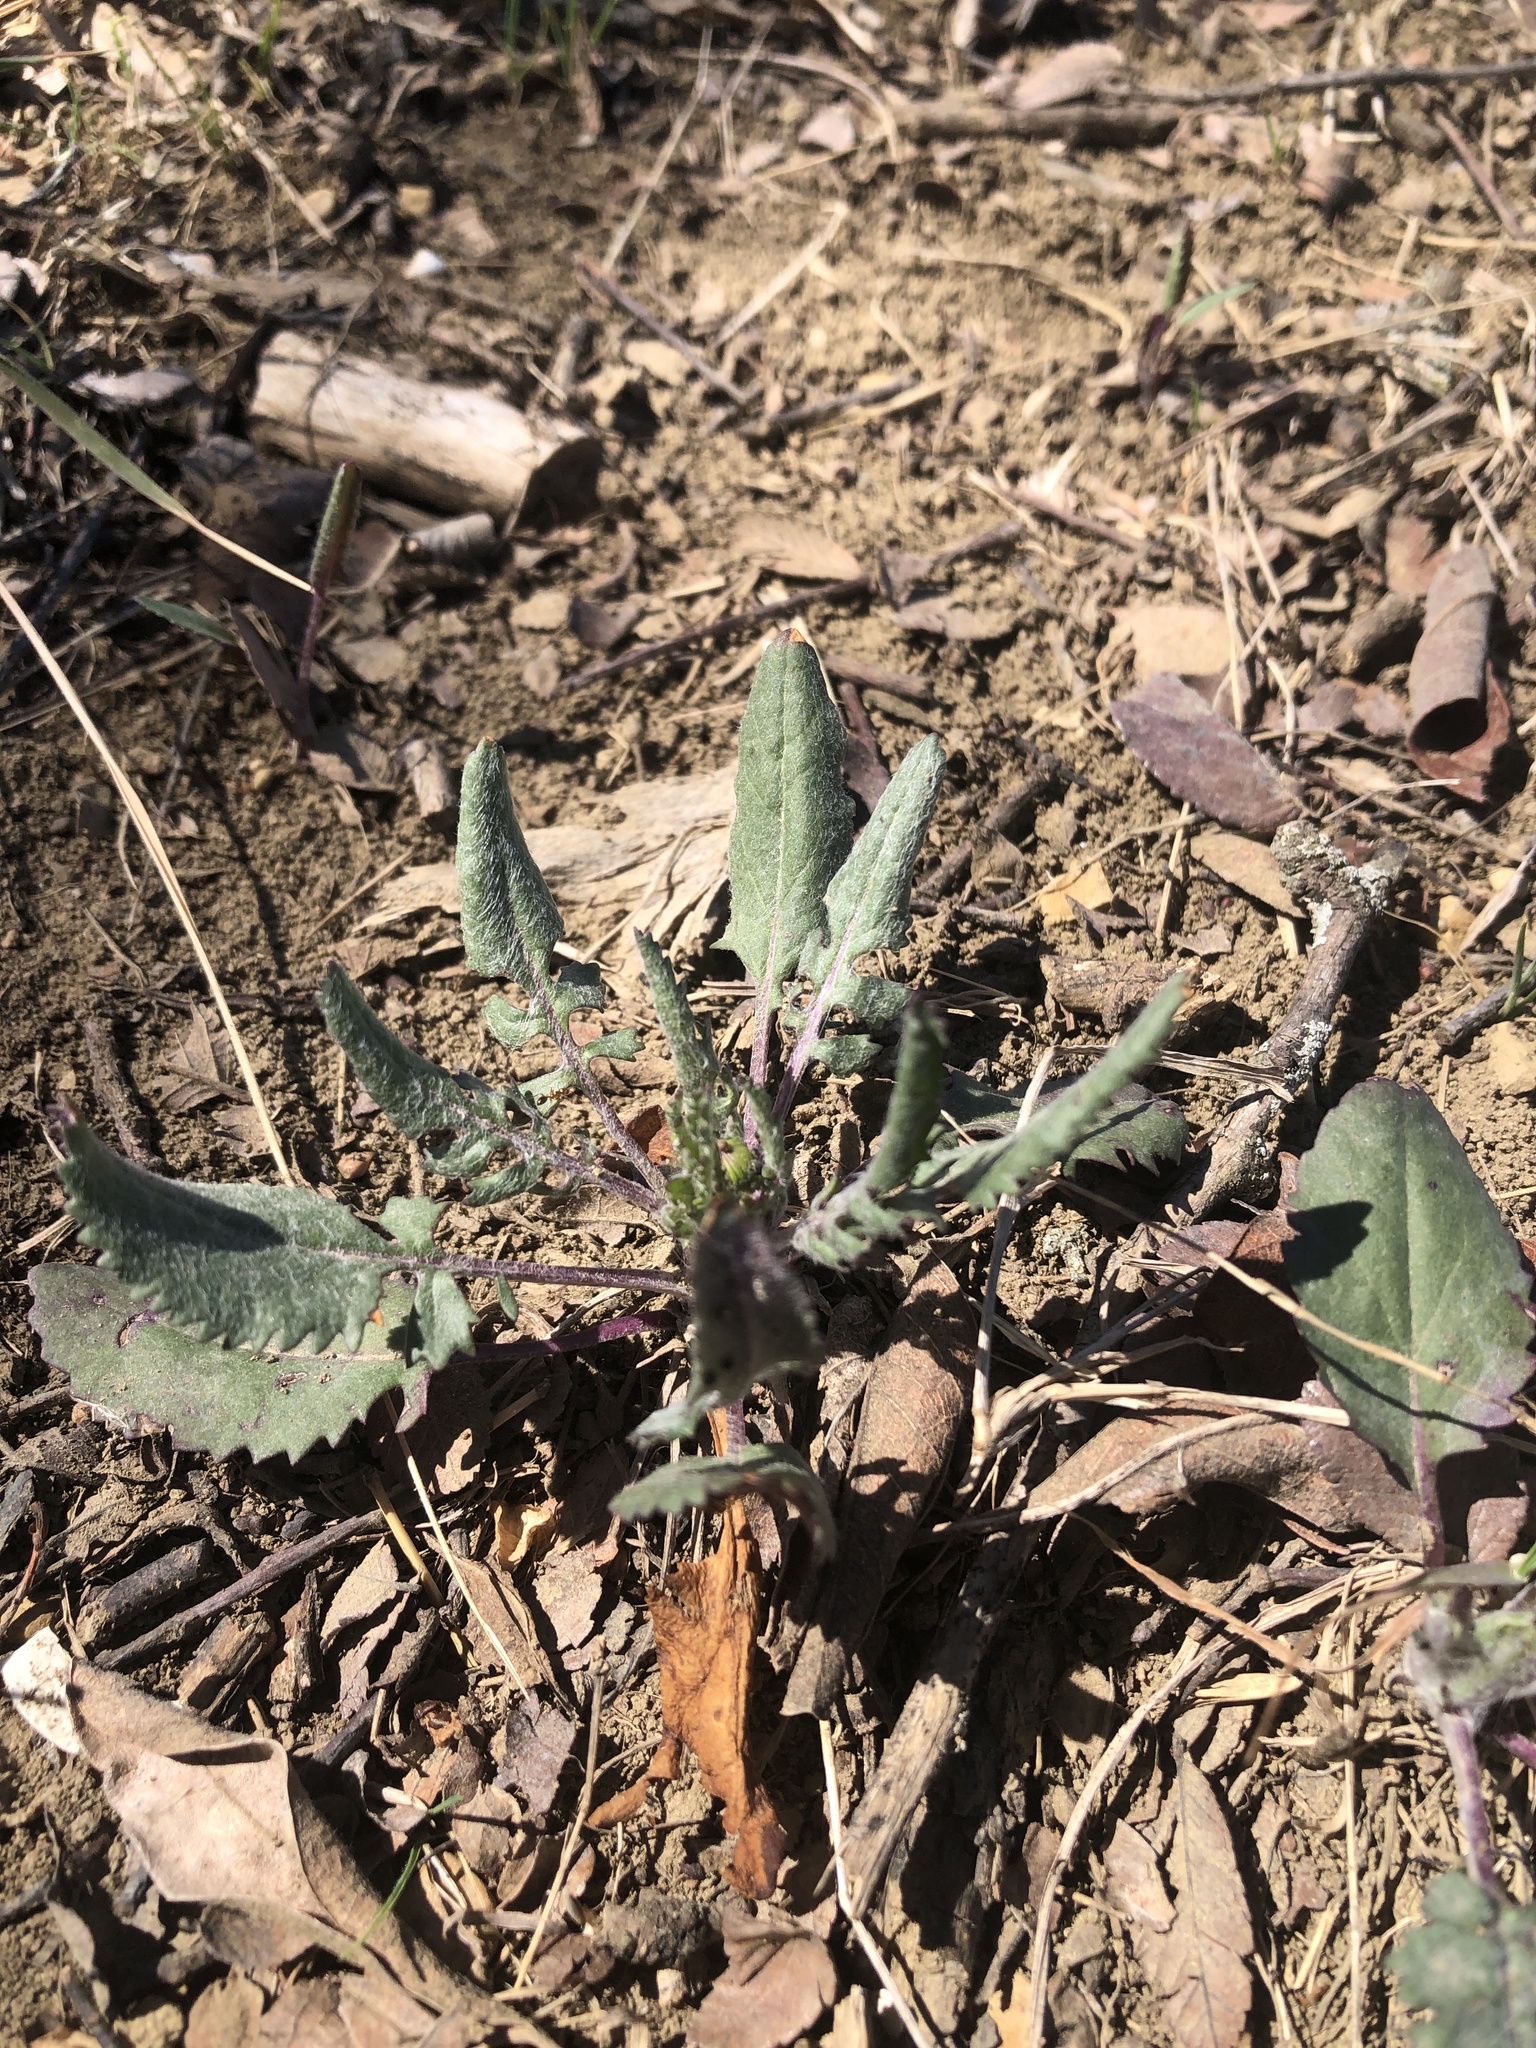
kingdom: Plantae
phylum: Tracheophyta
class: Magnoliopsida
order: Asterales
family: Asteraceae
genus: Packera
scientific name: Packera plattensis
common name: Prairie groundsel
